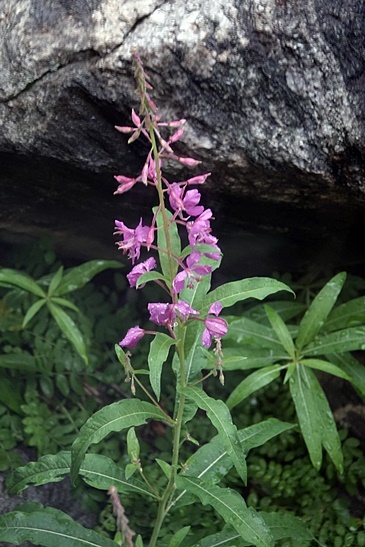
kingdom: Plantae
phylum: Tracheophyta
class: Magnoliopsida
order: Myrtales
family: Onagraceae
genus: Chamaenerion
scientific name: Chamaenerion angustifolium
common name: Fireweed
